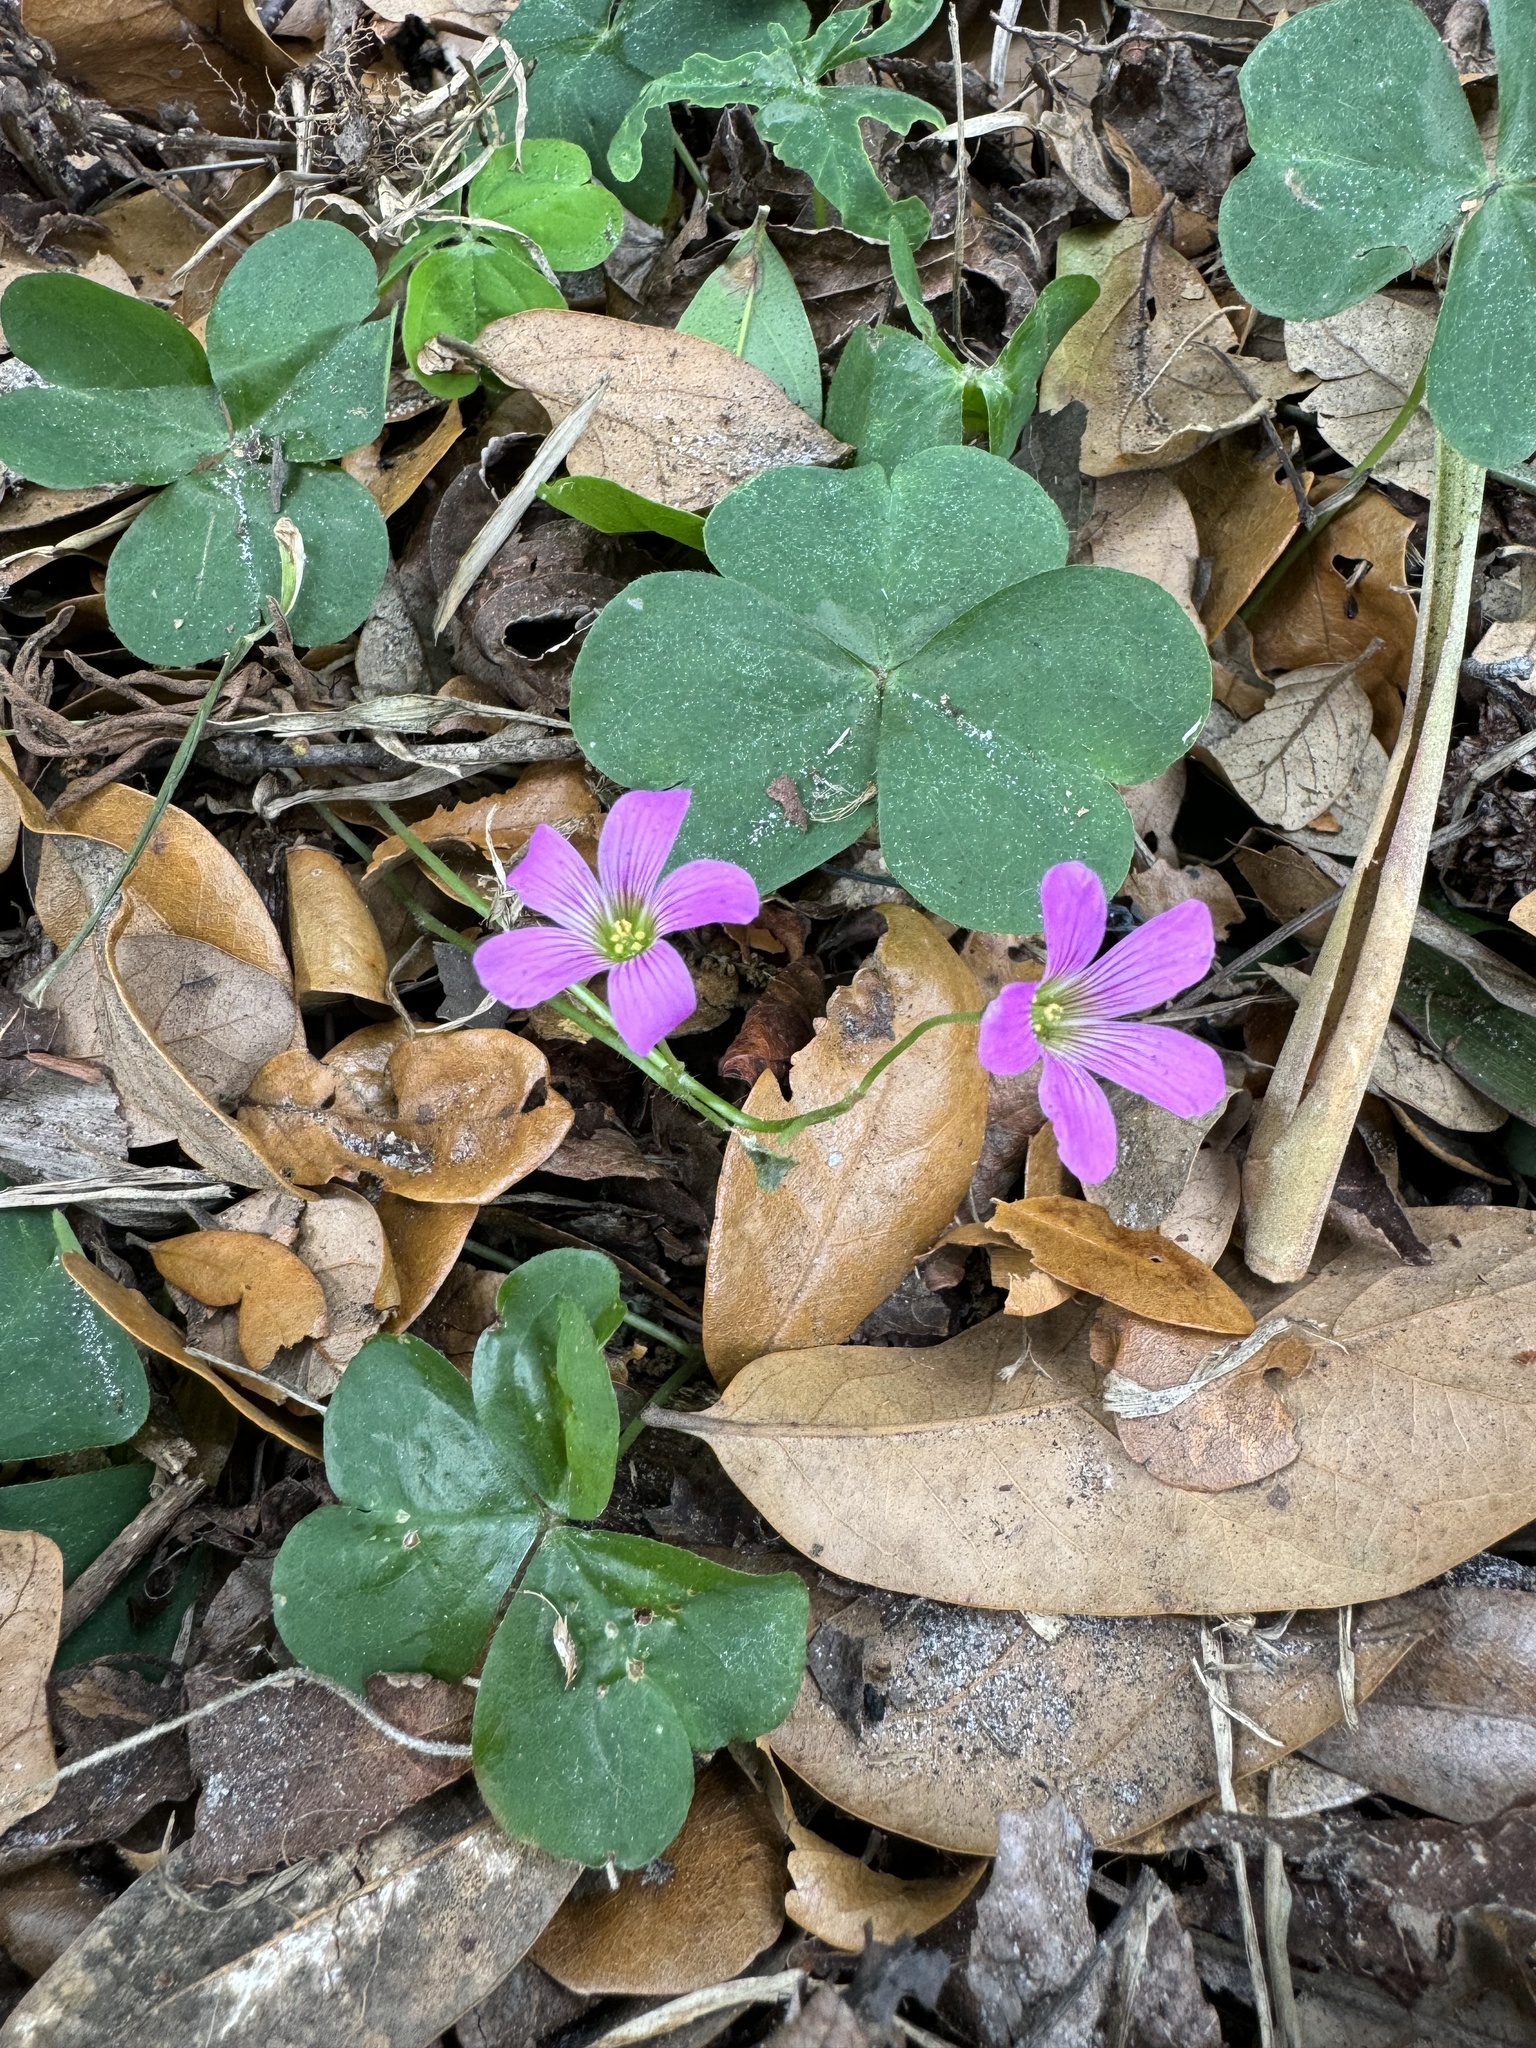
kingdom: Plantae
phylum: Tracheophyta
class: Magnoliopsida
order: Oxalidales
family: Oxalidaceae
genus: Oxalis
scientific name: Oxalis debilis
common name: Large-flowered pink-sorrel
